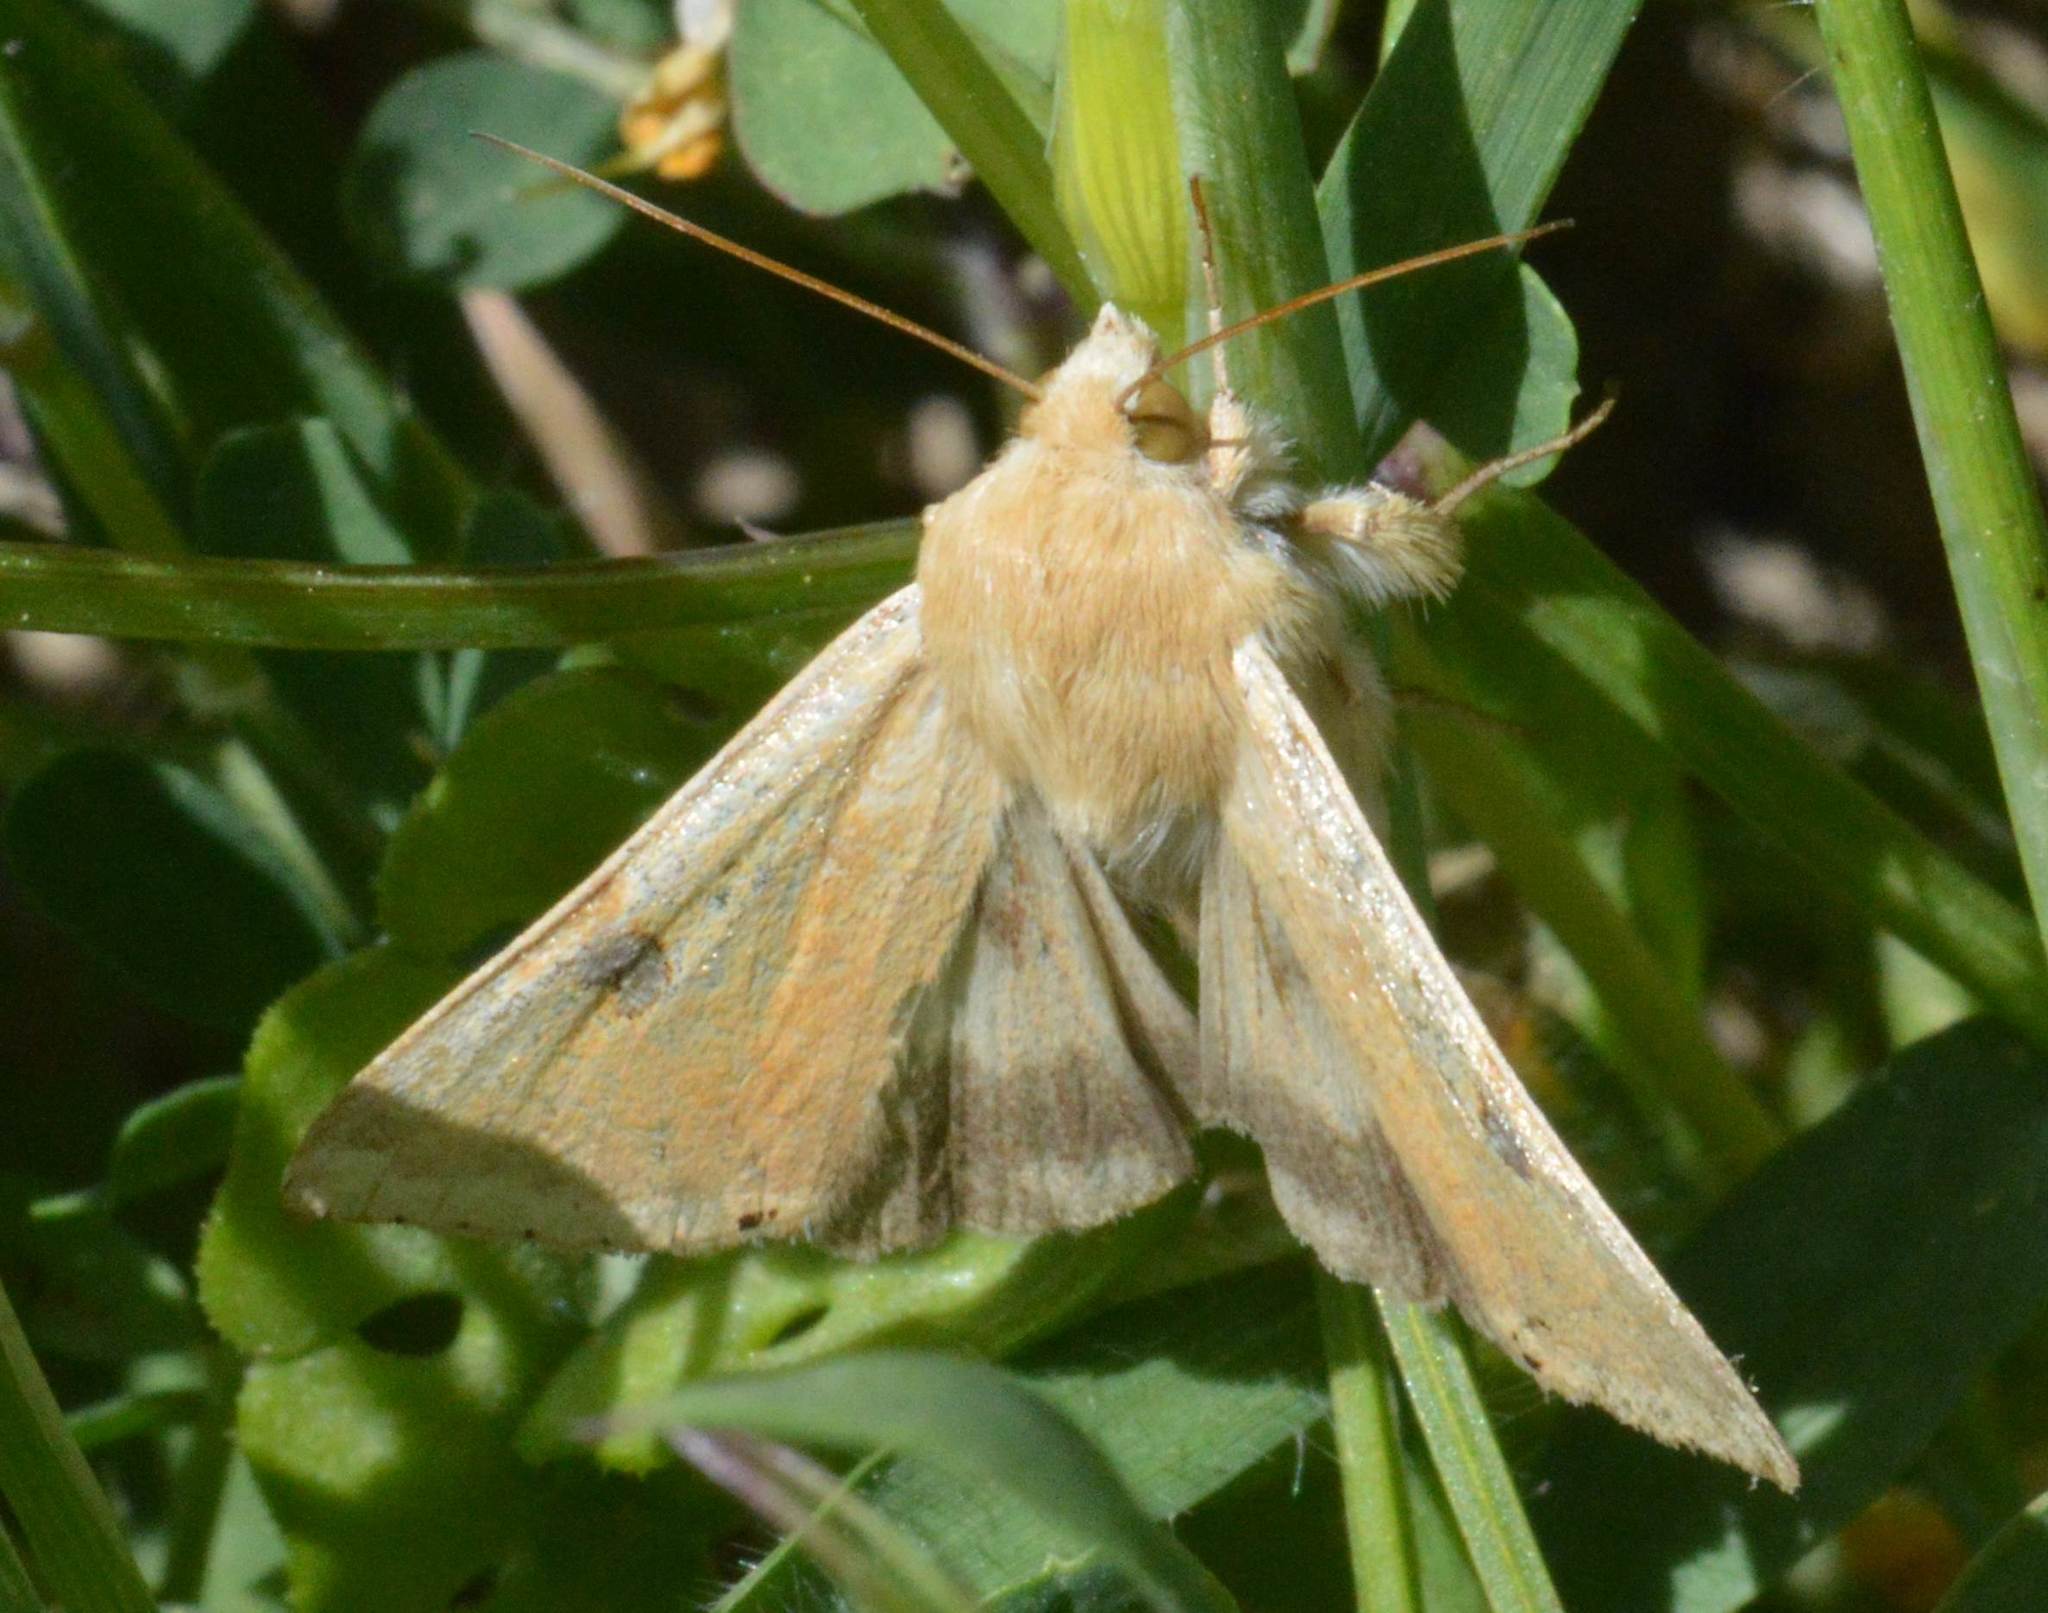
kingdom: Animalia
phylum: Arthropoda
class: Insecta
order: Lepidoptera
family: Noctuidae
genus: Heliothis
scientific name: Heliothis peltigera
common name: Bordered straw
